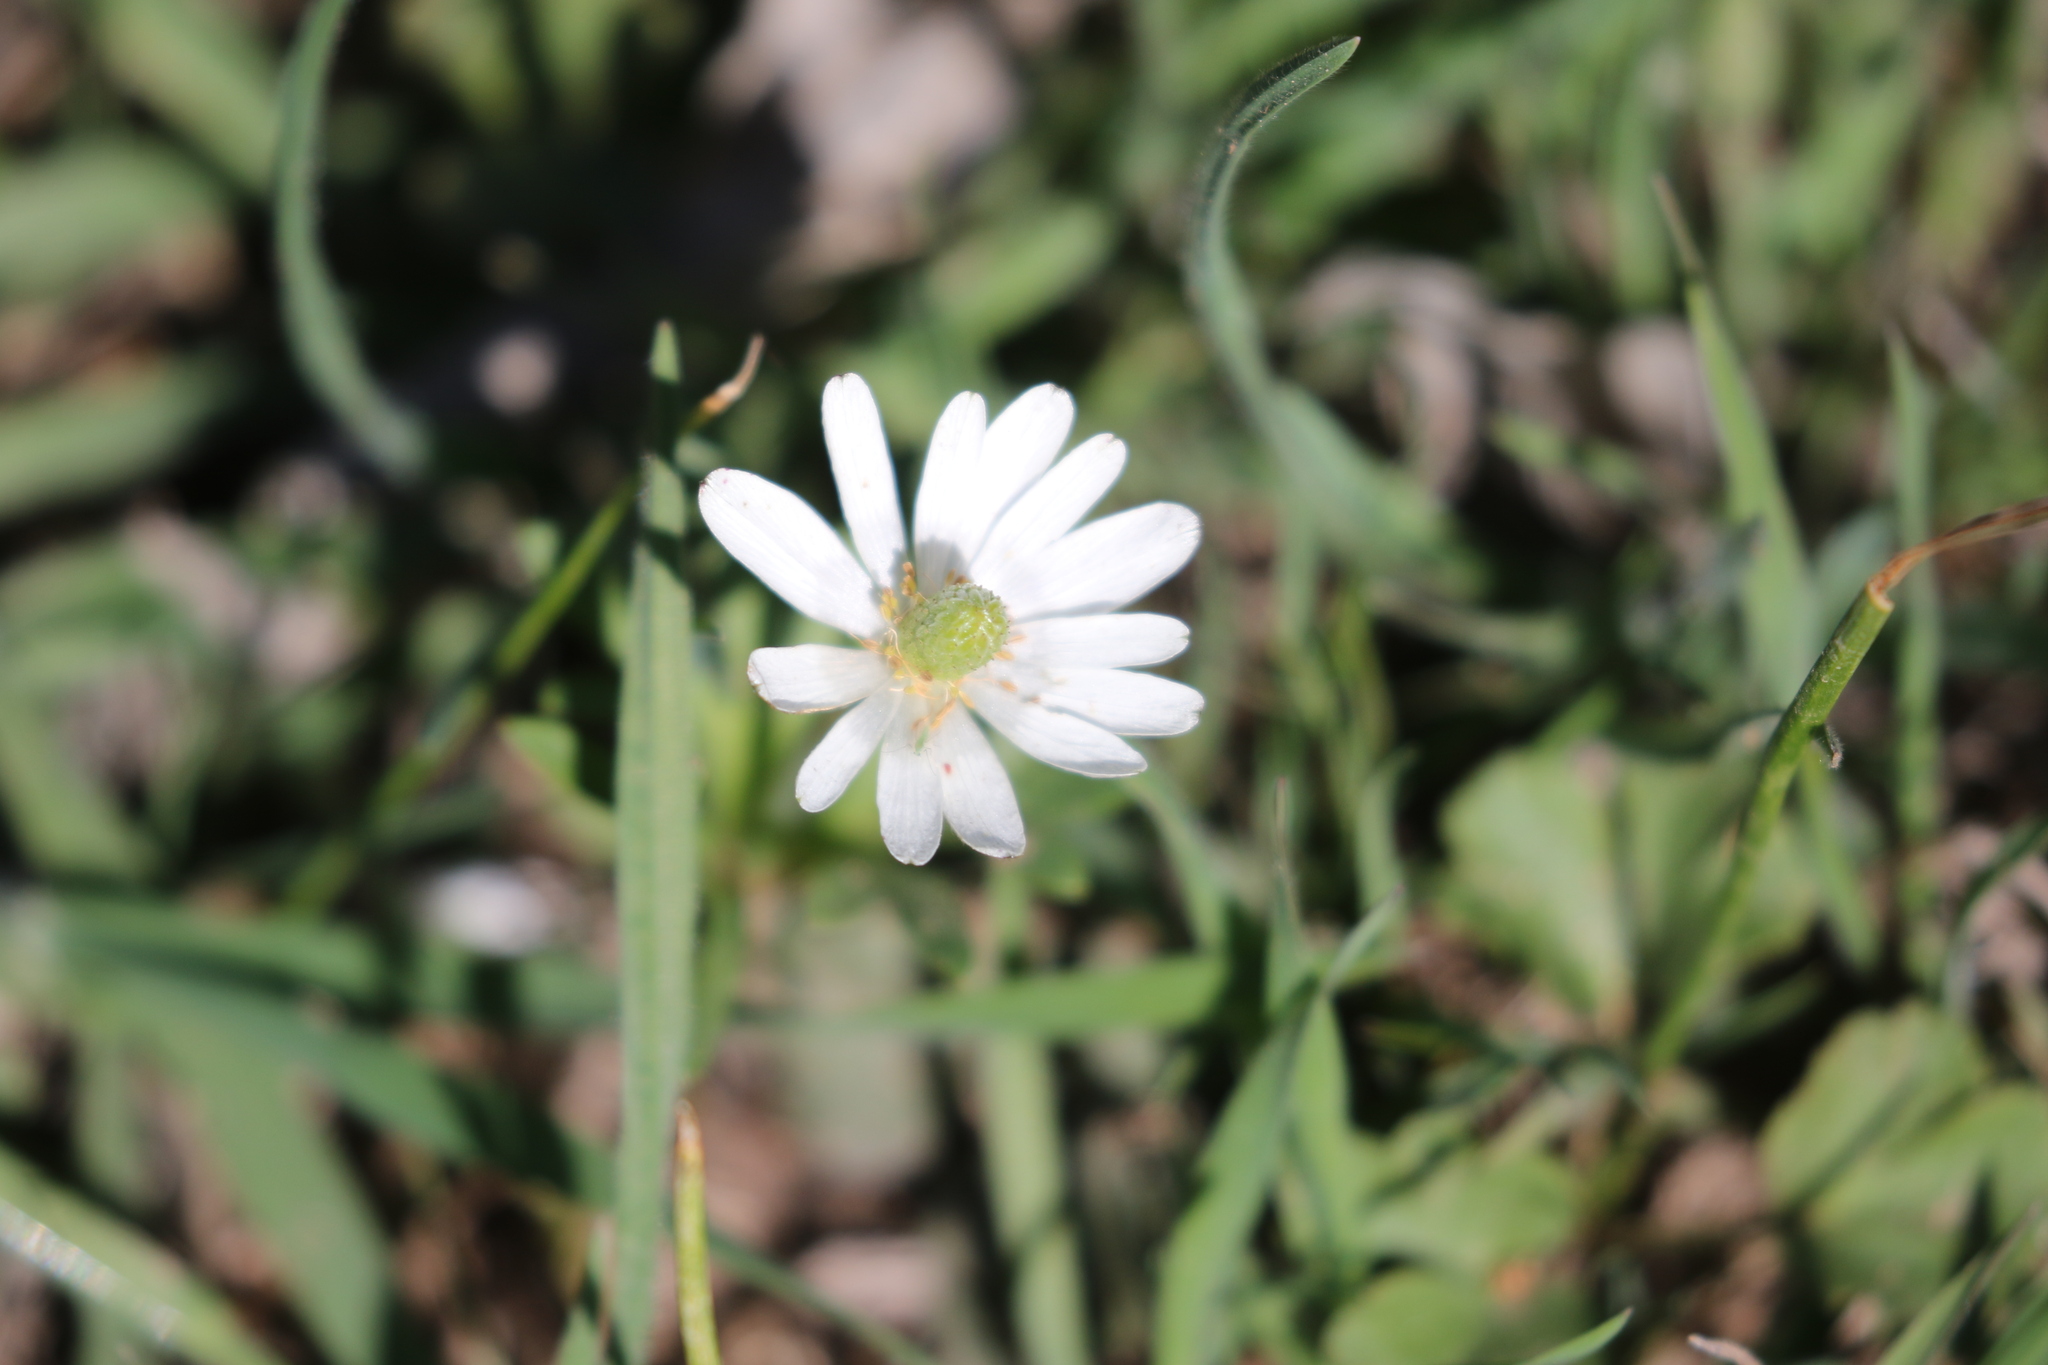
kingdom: Plantae
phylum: Tracheophyta
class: Magnoliopsida
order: Ranunculales
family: Ranunculaceae
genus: Anemone
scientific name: Anemone berlandieri
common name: Ten-petal anemone
